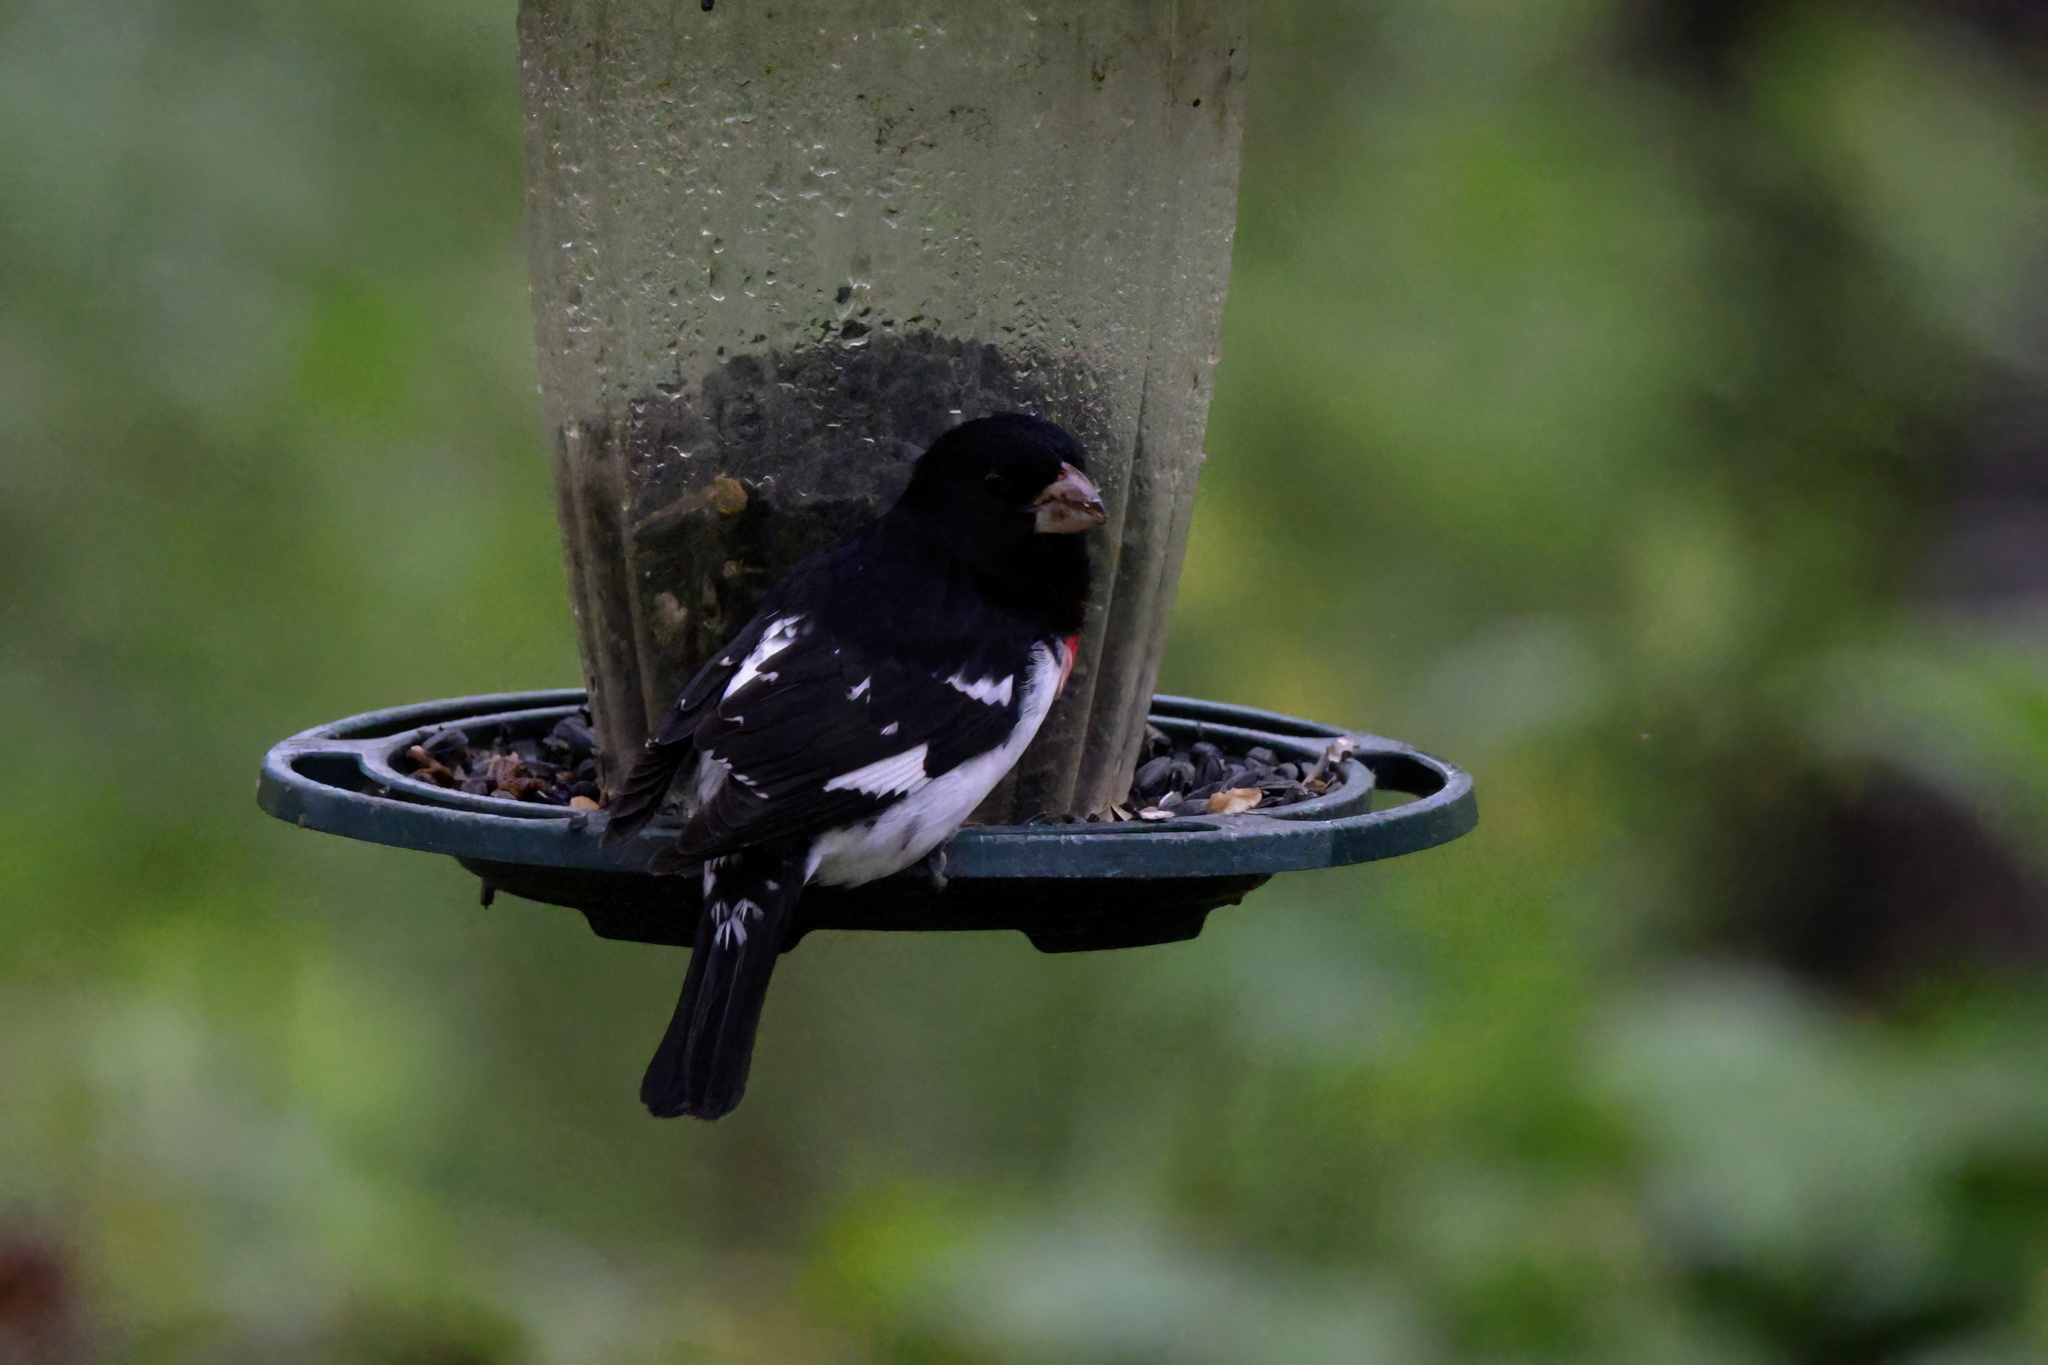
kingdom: Animalia
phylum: Chordata
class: Aves
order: Passeriformes
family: Cardinalidae
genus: Pheucticus
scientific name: Pheucticus ludovicianus
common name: Rose-breasted grosbeak
